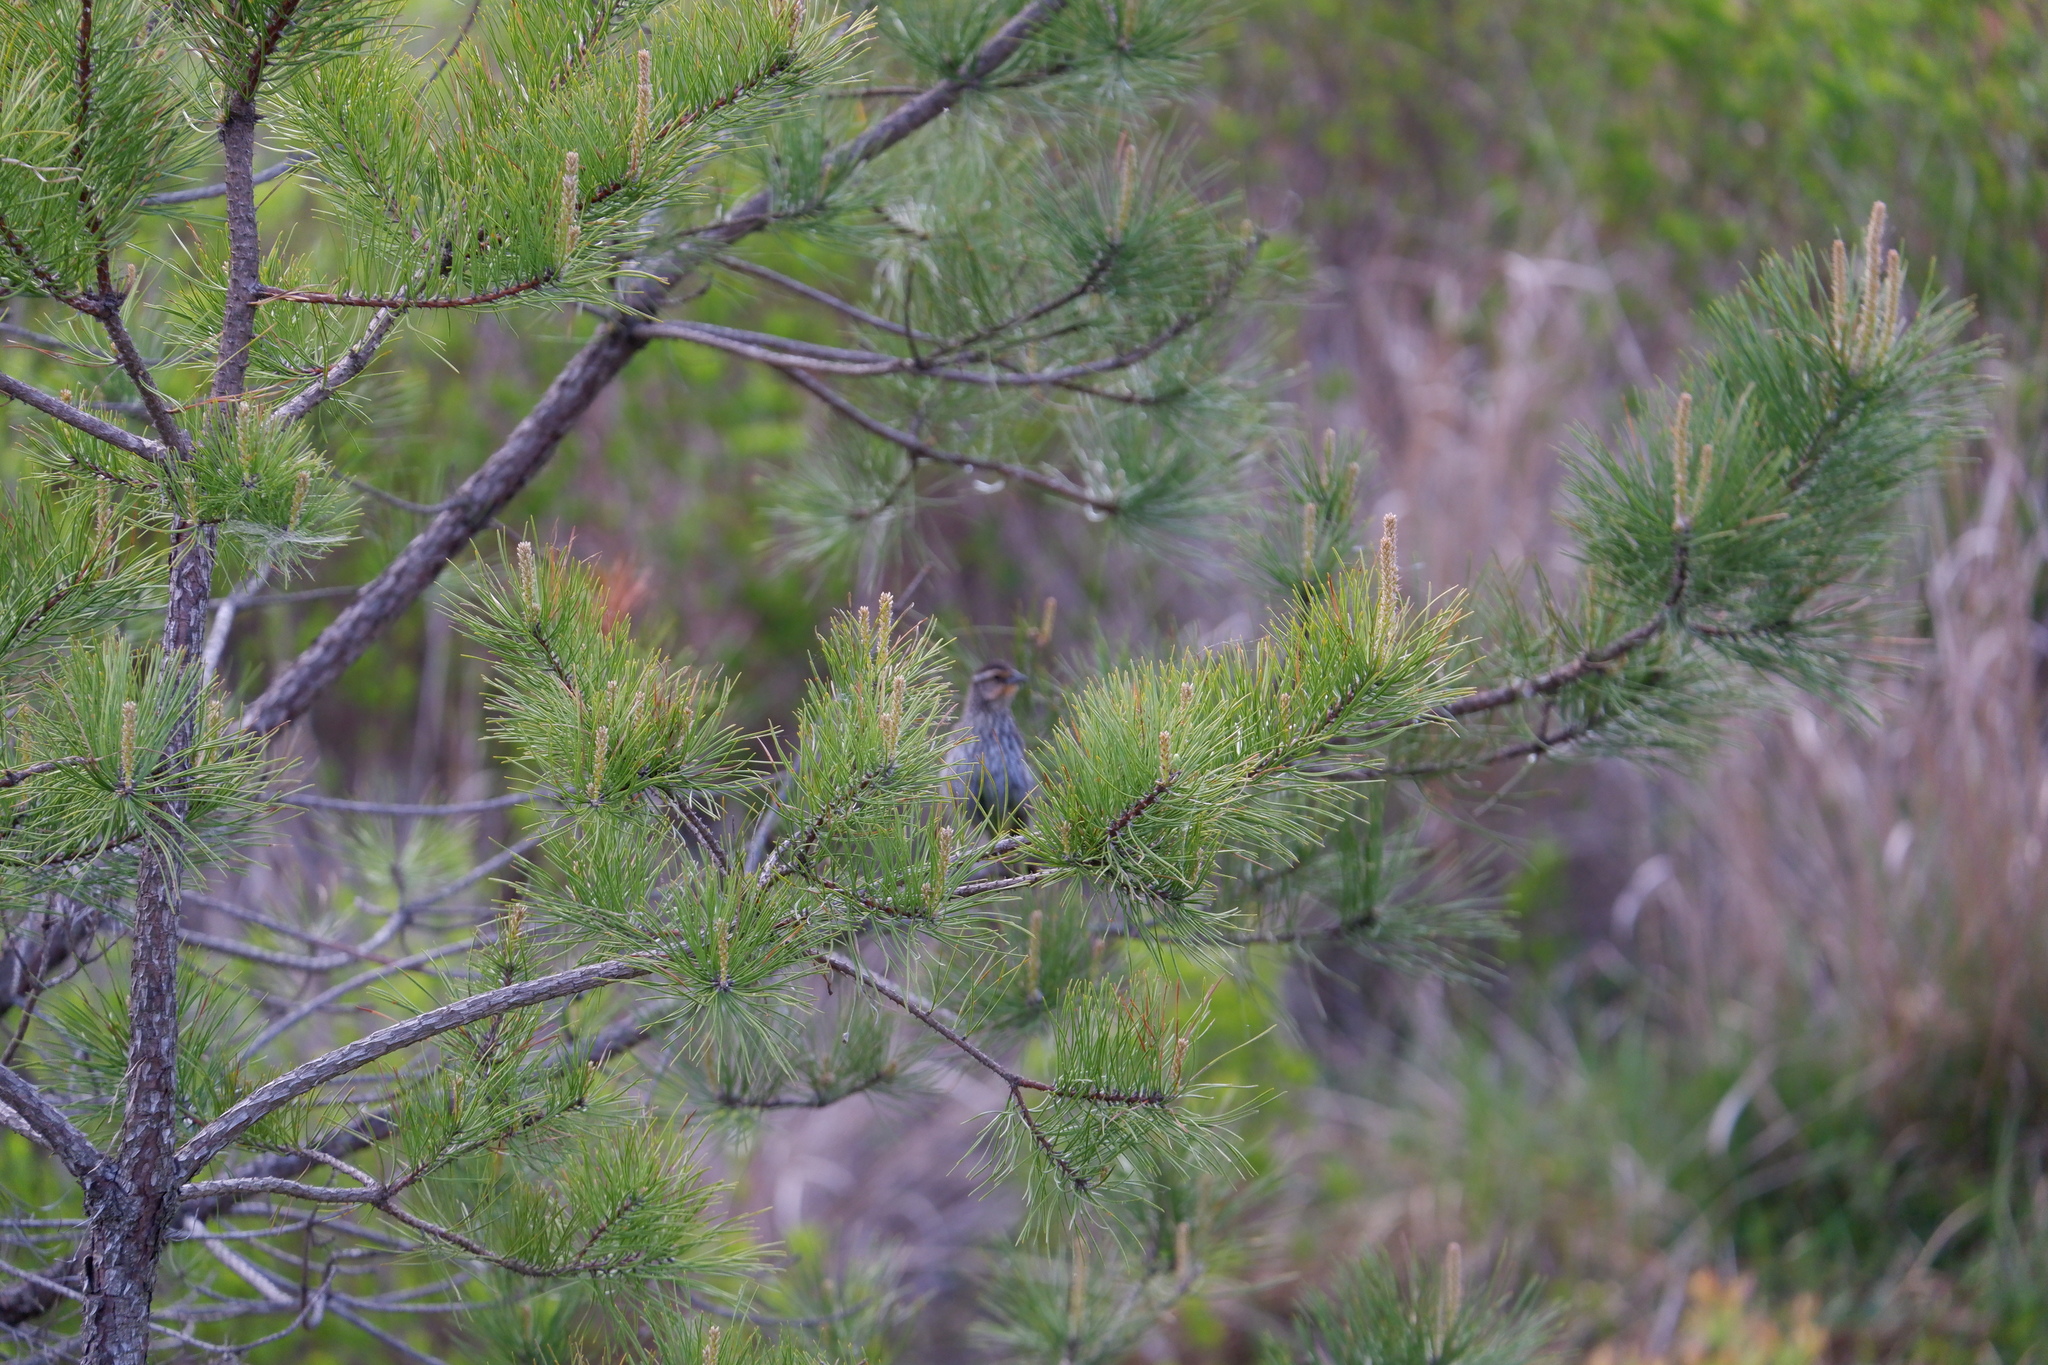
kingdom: Animalia
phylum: Chordata
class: Aves
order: Passeriformes
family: Icteridae
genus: Agelaius
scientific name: Agelaius phoeniceus
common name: Red-winged blackbird
